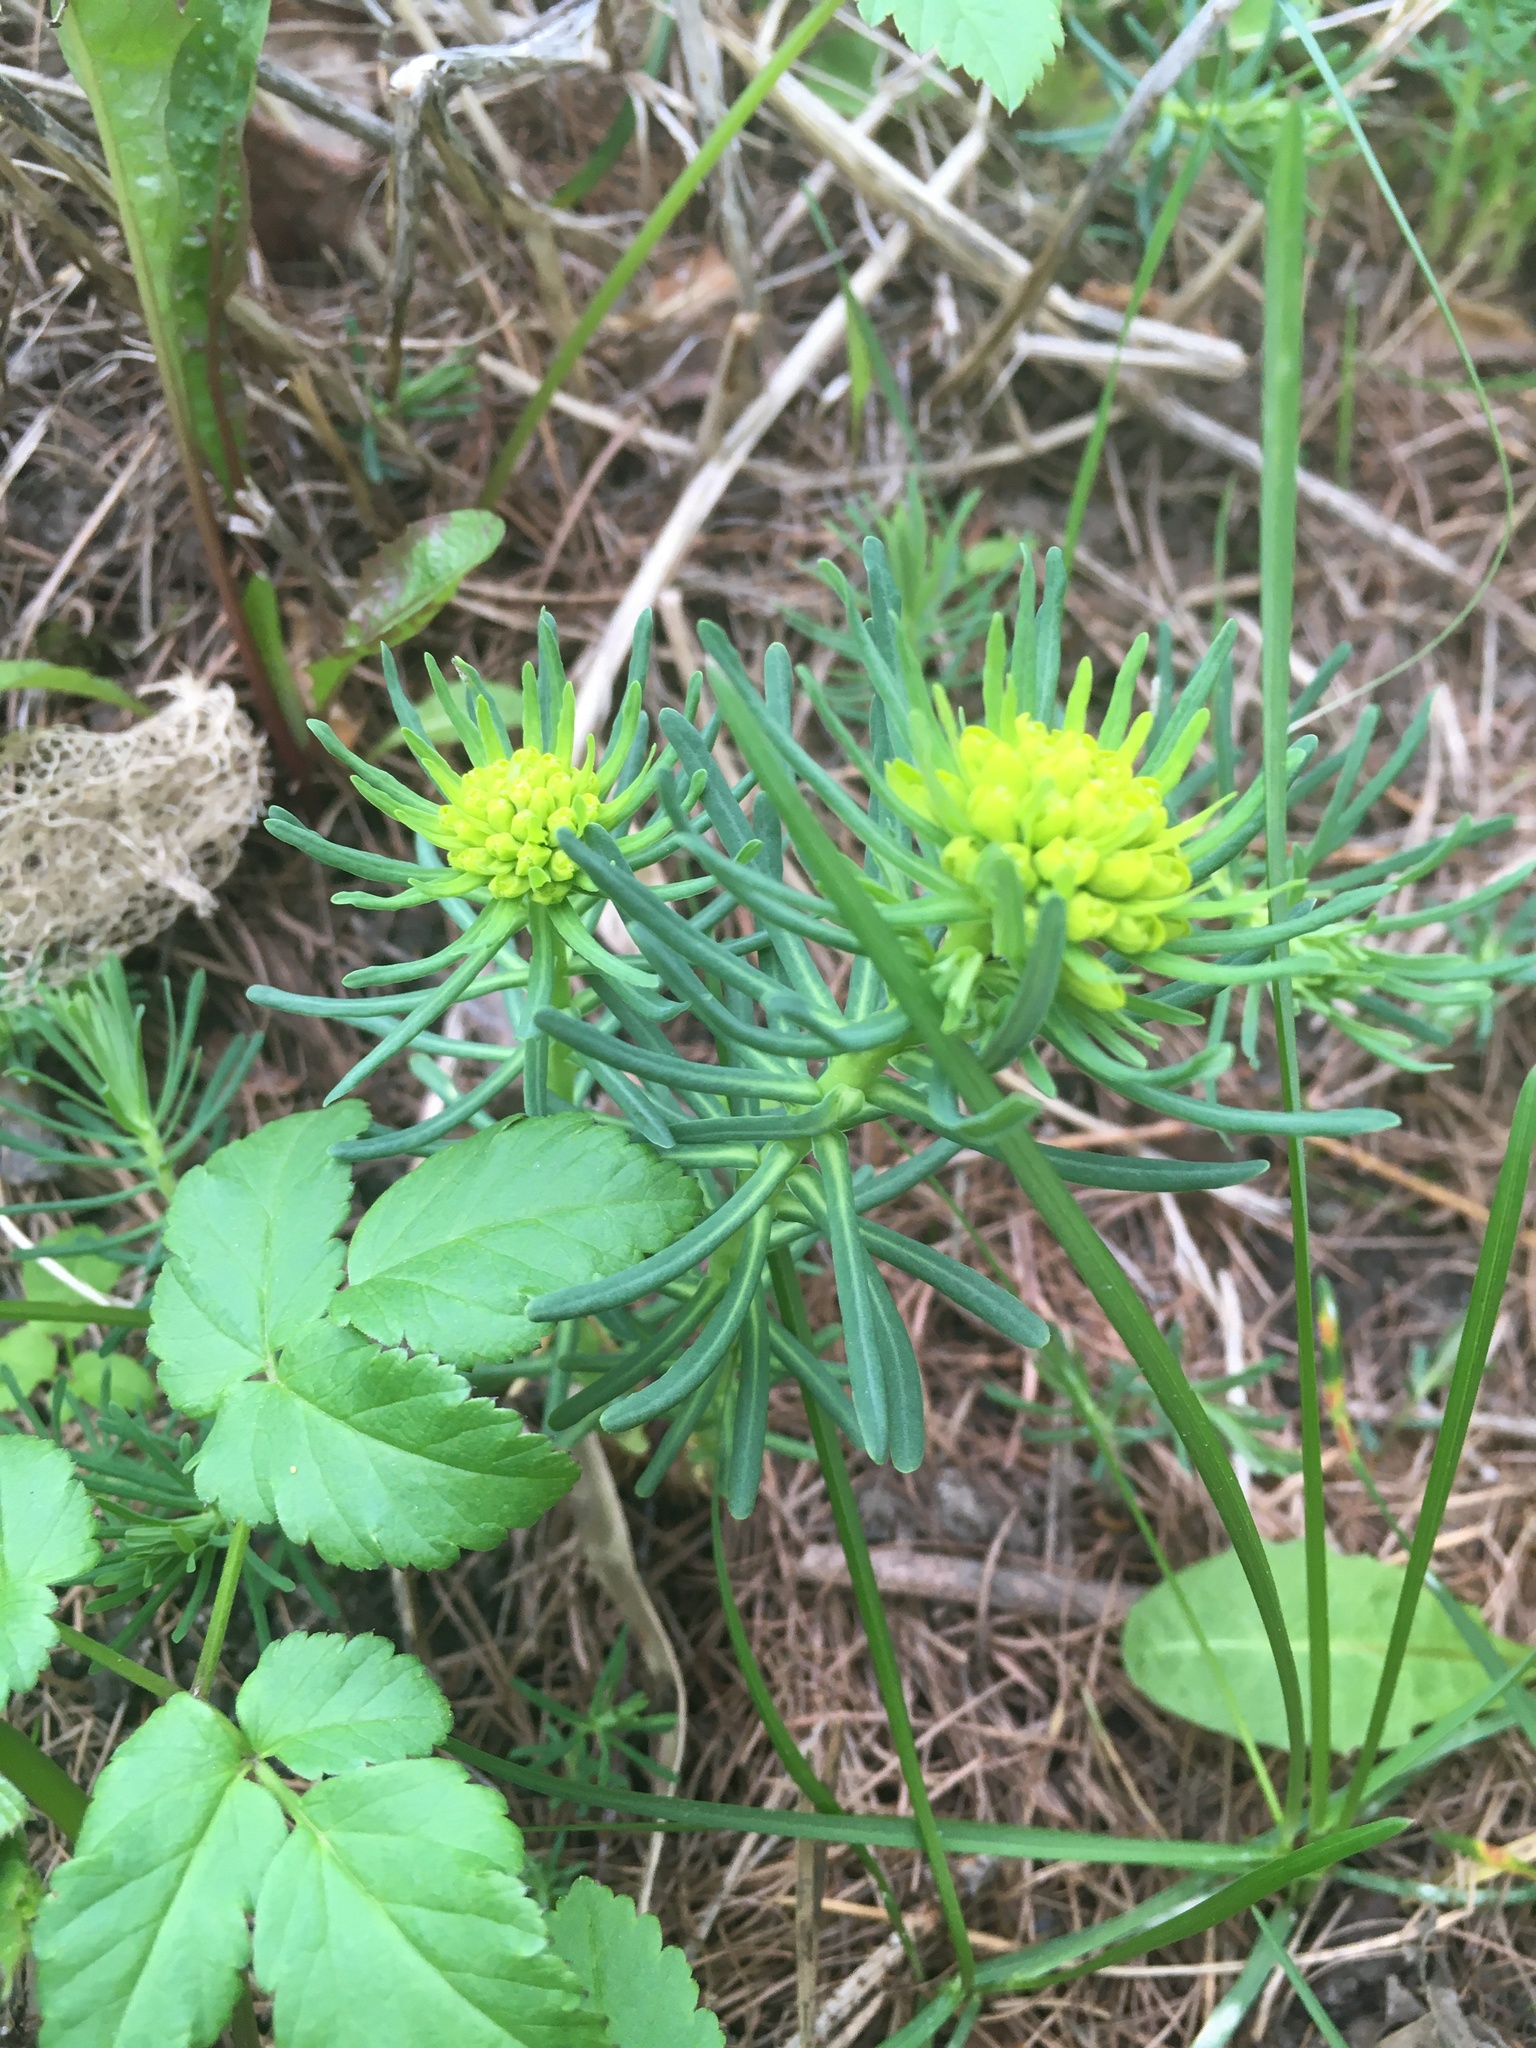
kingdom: Plantae
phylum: Tracheophyta
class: Magnoliopsida
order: Malpighiales
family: Euphorbiaceae
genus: Euphorbia
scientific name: Euphorbia cyparissias
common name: Cypress spurge
